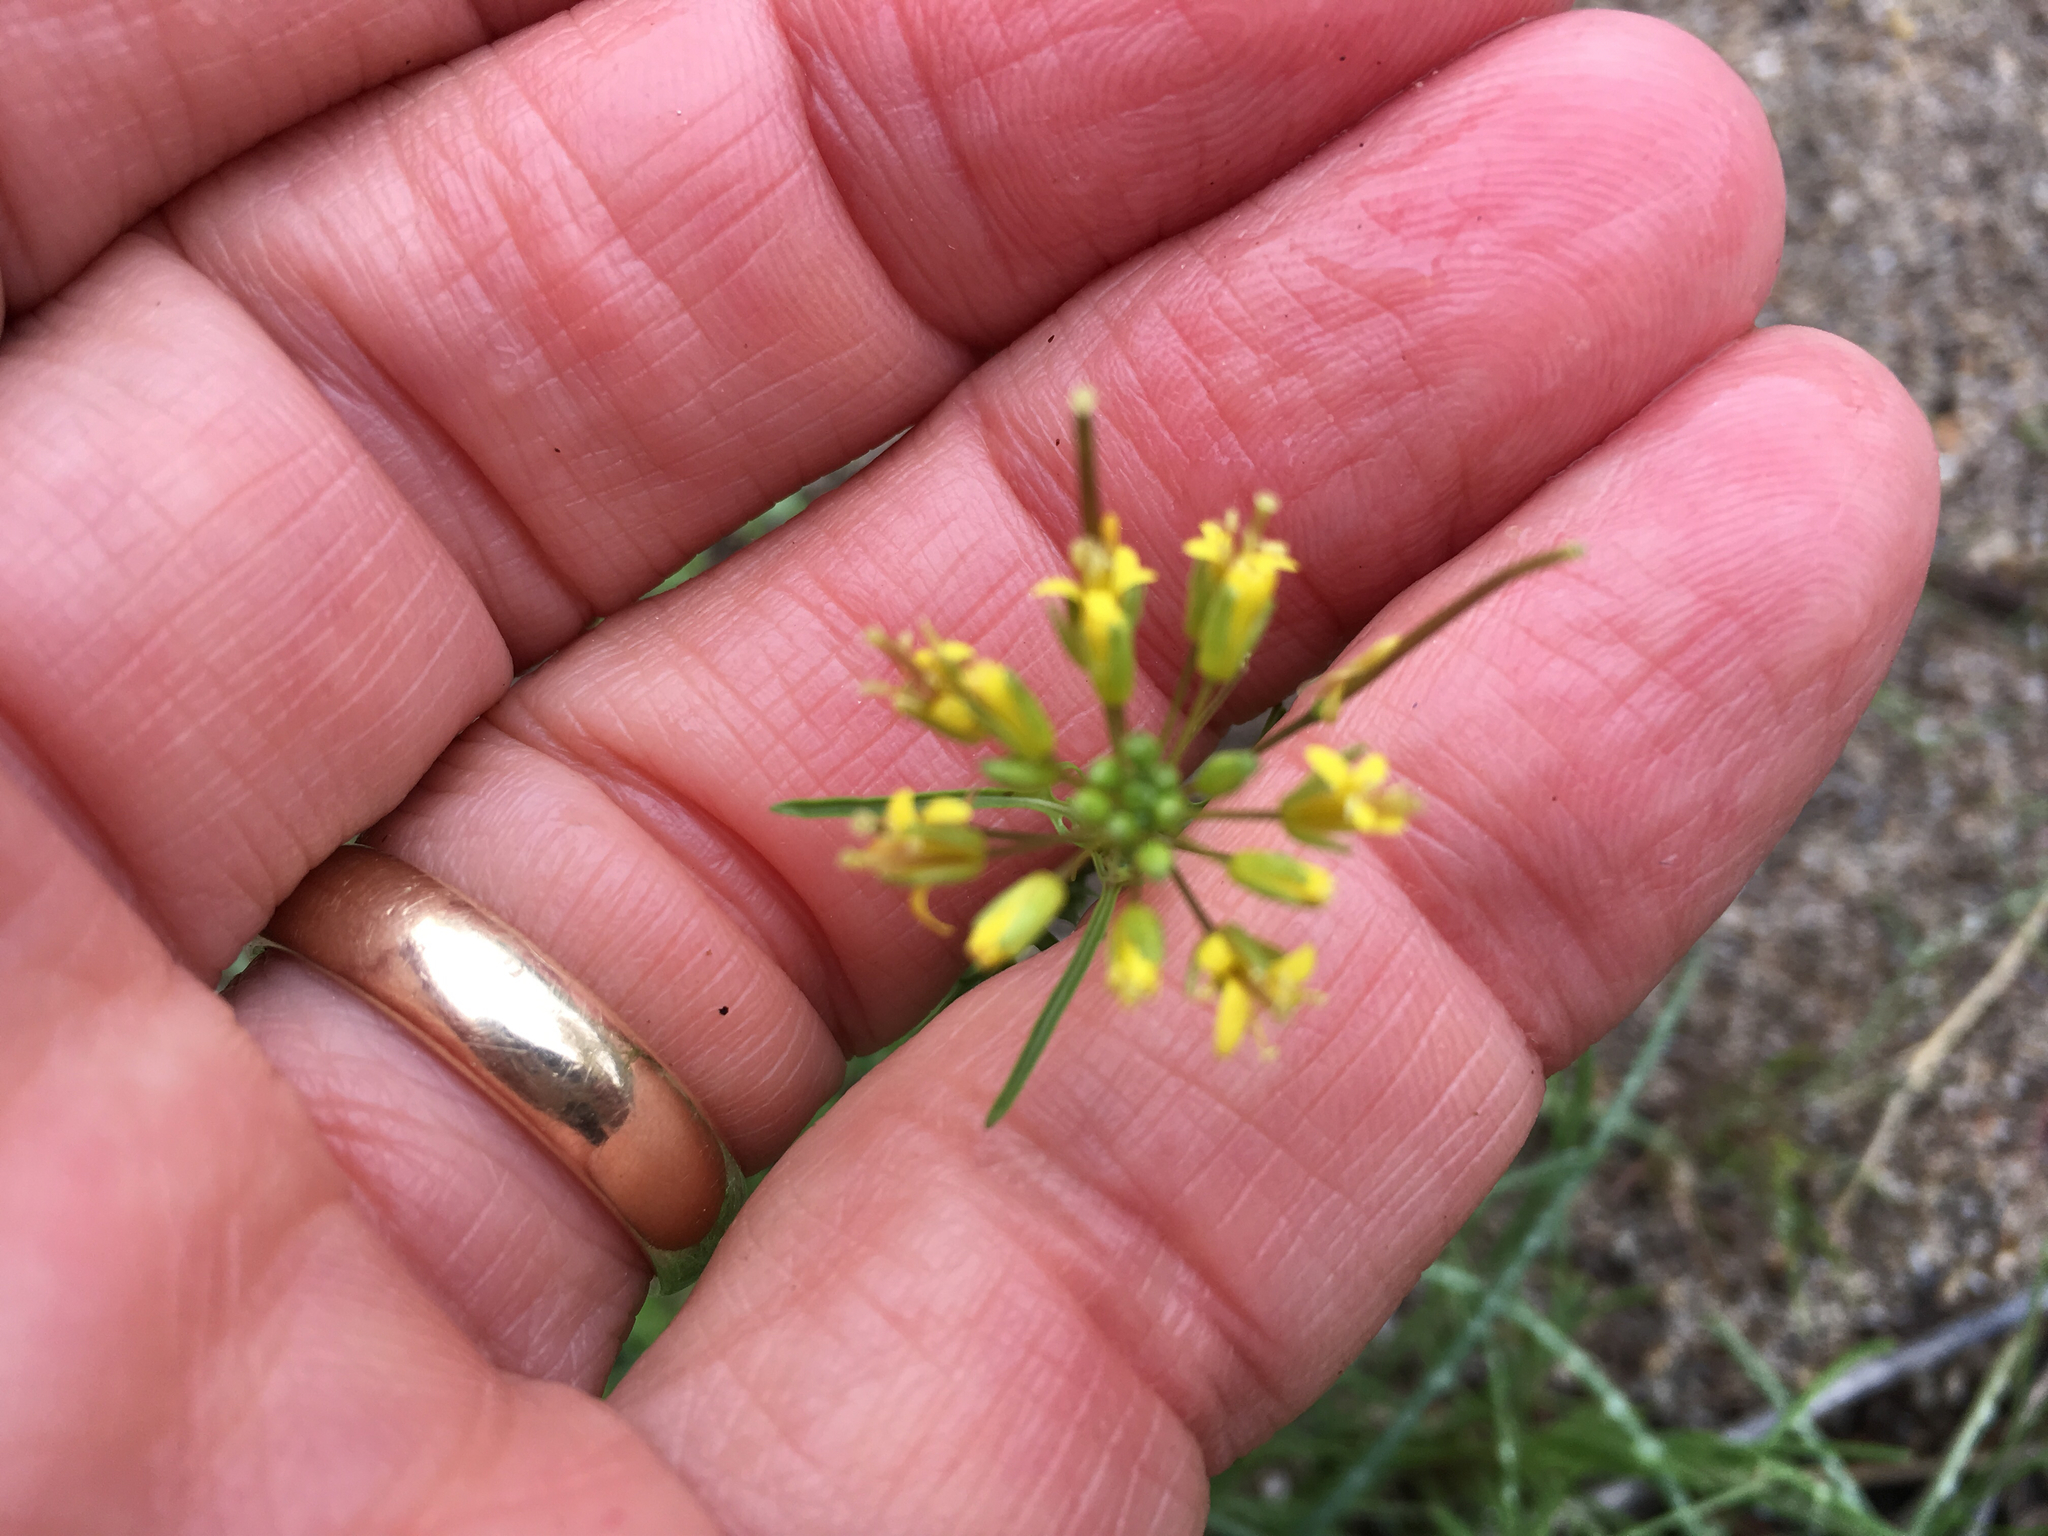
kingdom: Plantae
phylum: Tracheophyta
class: Magnoliopsida
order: Brassicales
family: Brassicaceae
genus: Sisymbrium
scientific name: Sisymbrium irio
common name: London rocket
